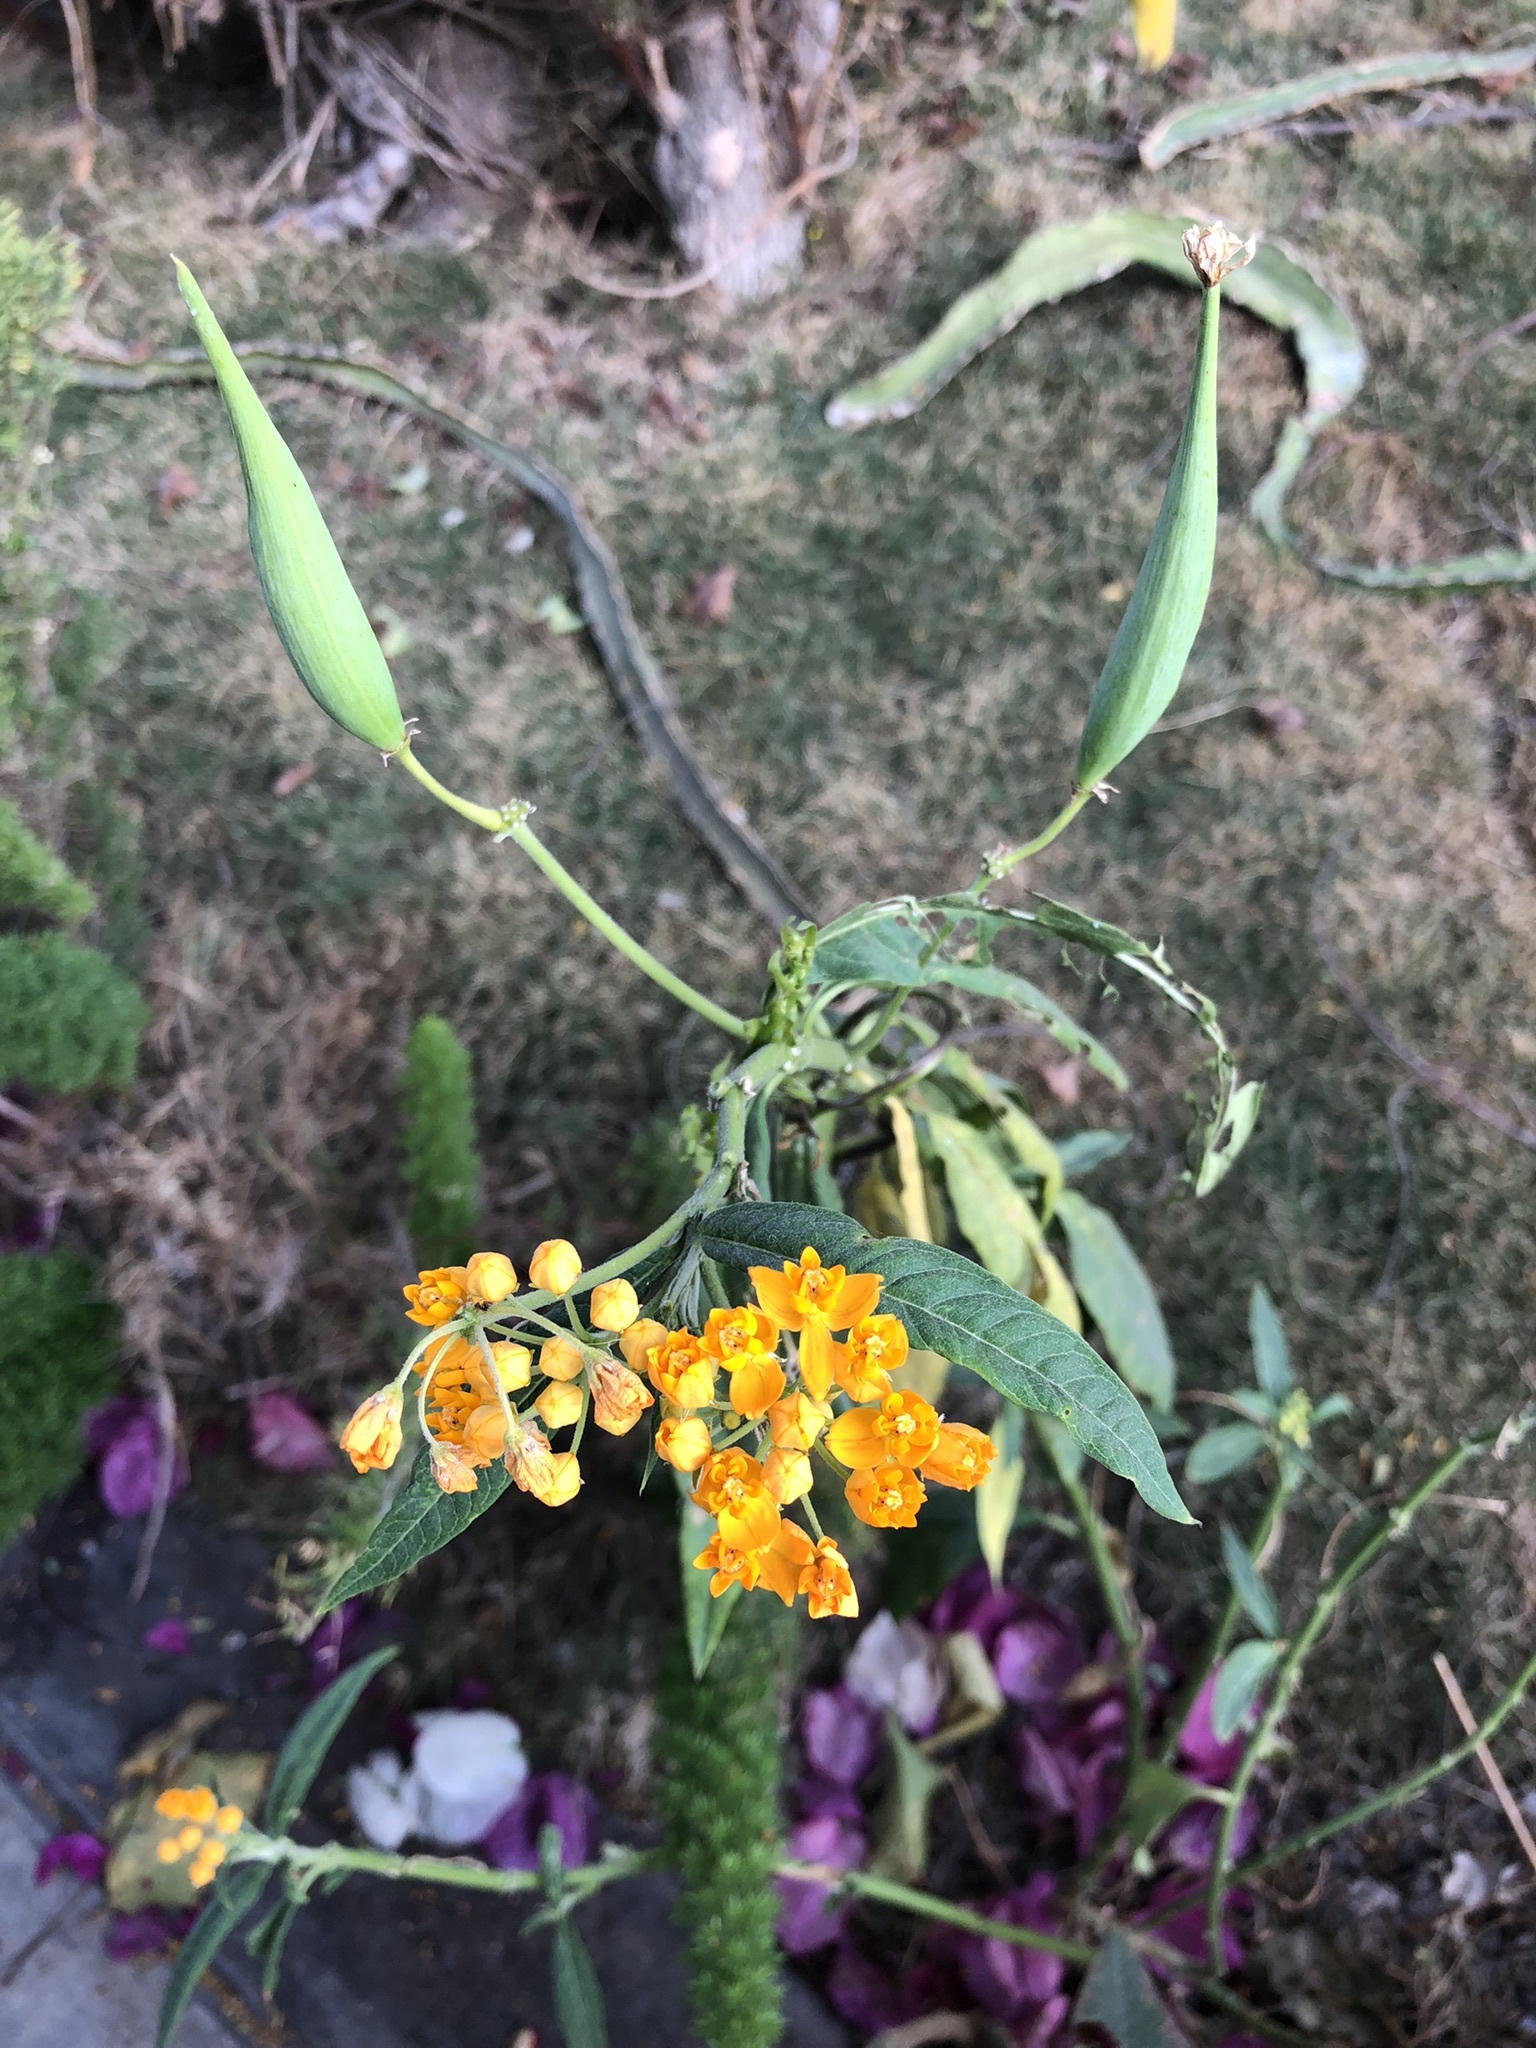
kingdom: Plantae
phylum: Tracheophyta
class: Magnoliopsida
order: Gentianales
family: Apocynaceae
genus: Asclepias
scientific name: Asclepias curassavica
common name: Bloodflower
